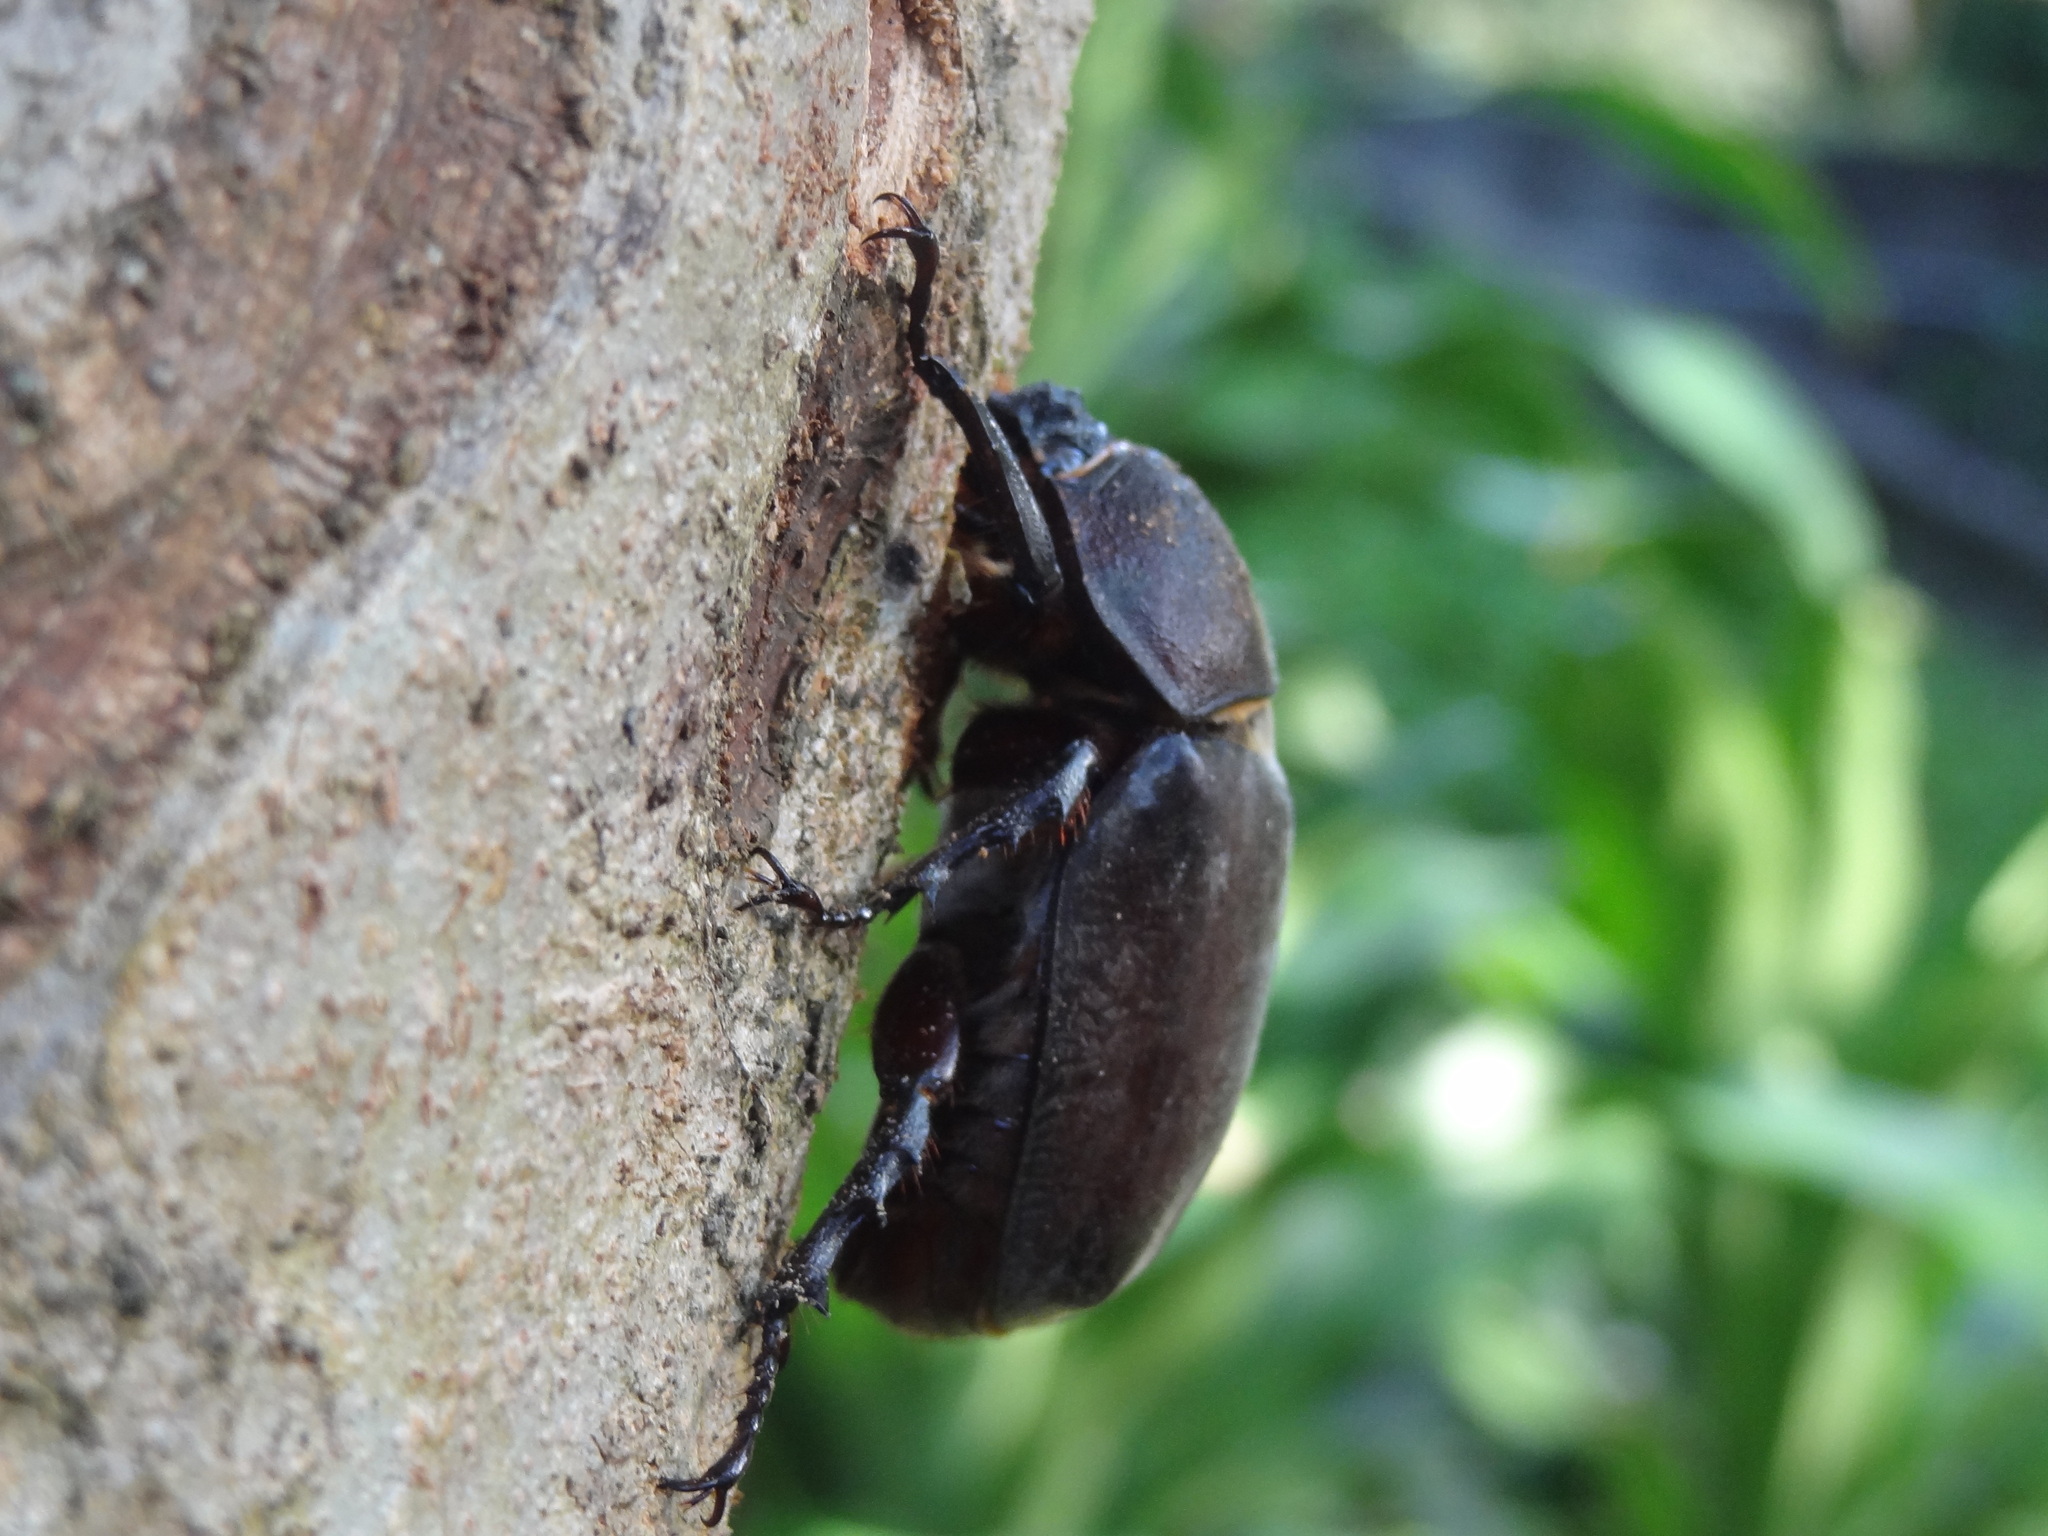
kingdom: Animalia
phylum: Arthropoda
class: Insecta
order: Coleoptera
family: Scarabaeidae
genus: Trypoxylus
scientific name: Trypoxylus dichotomus
